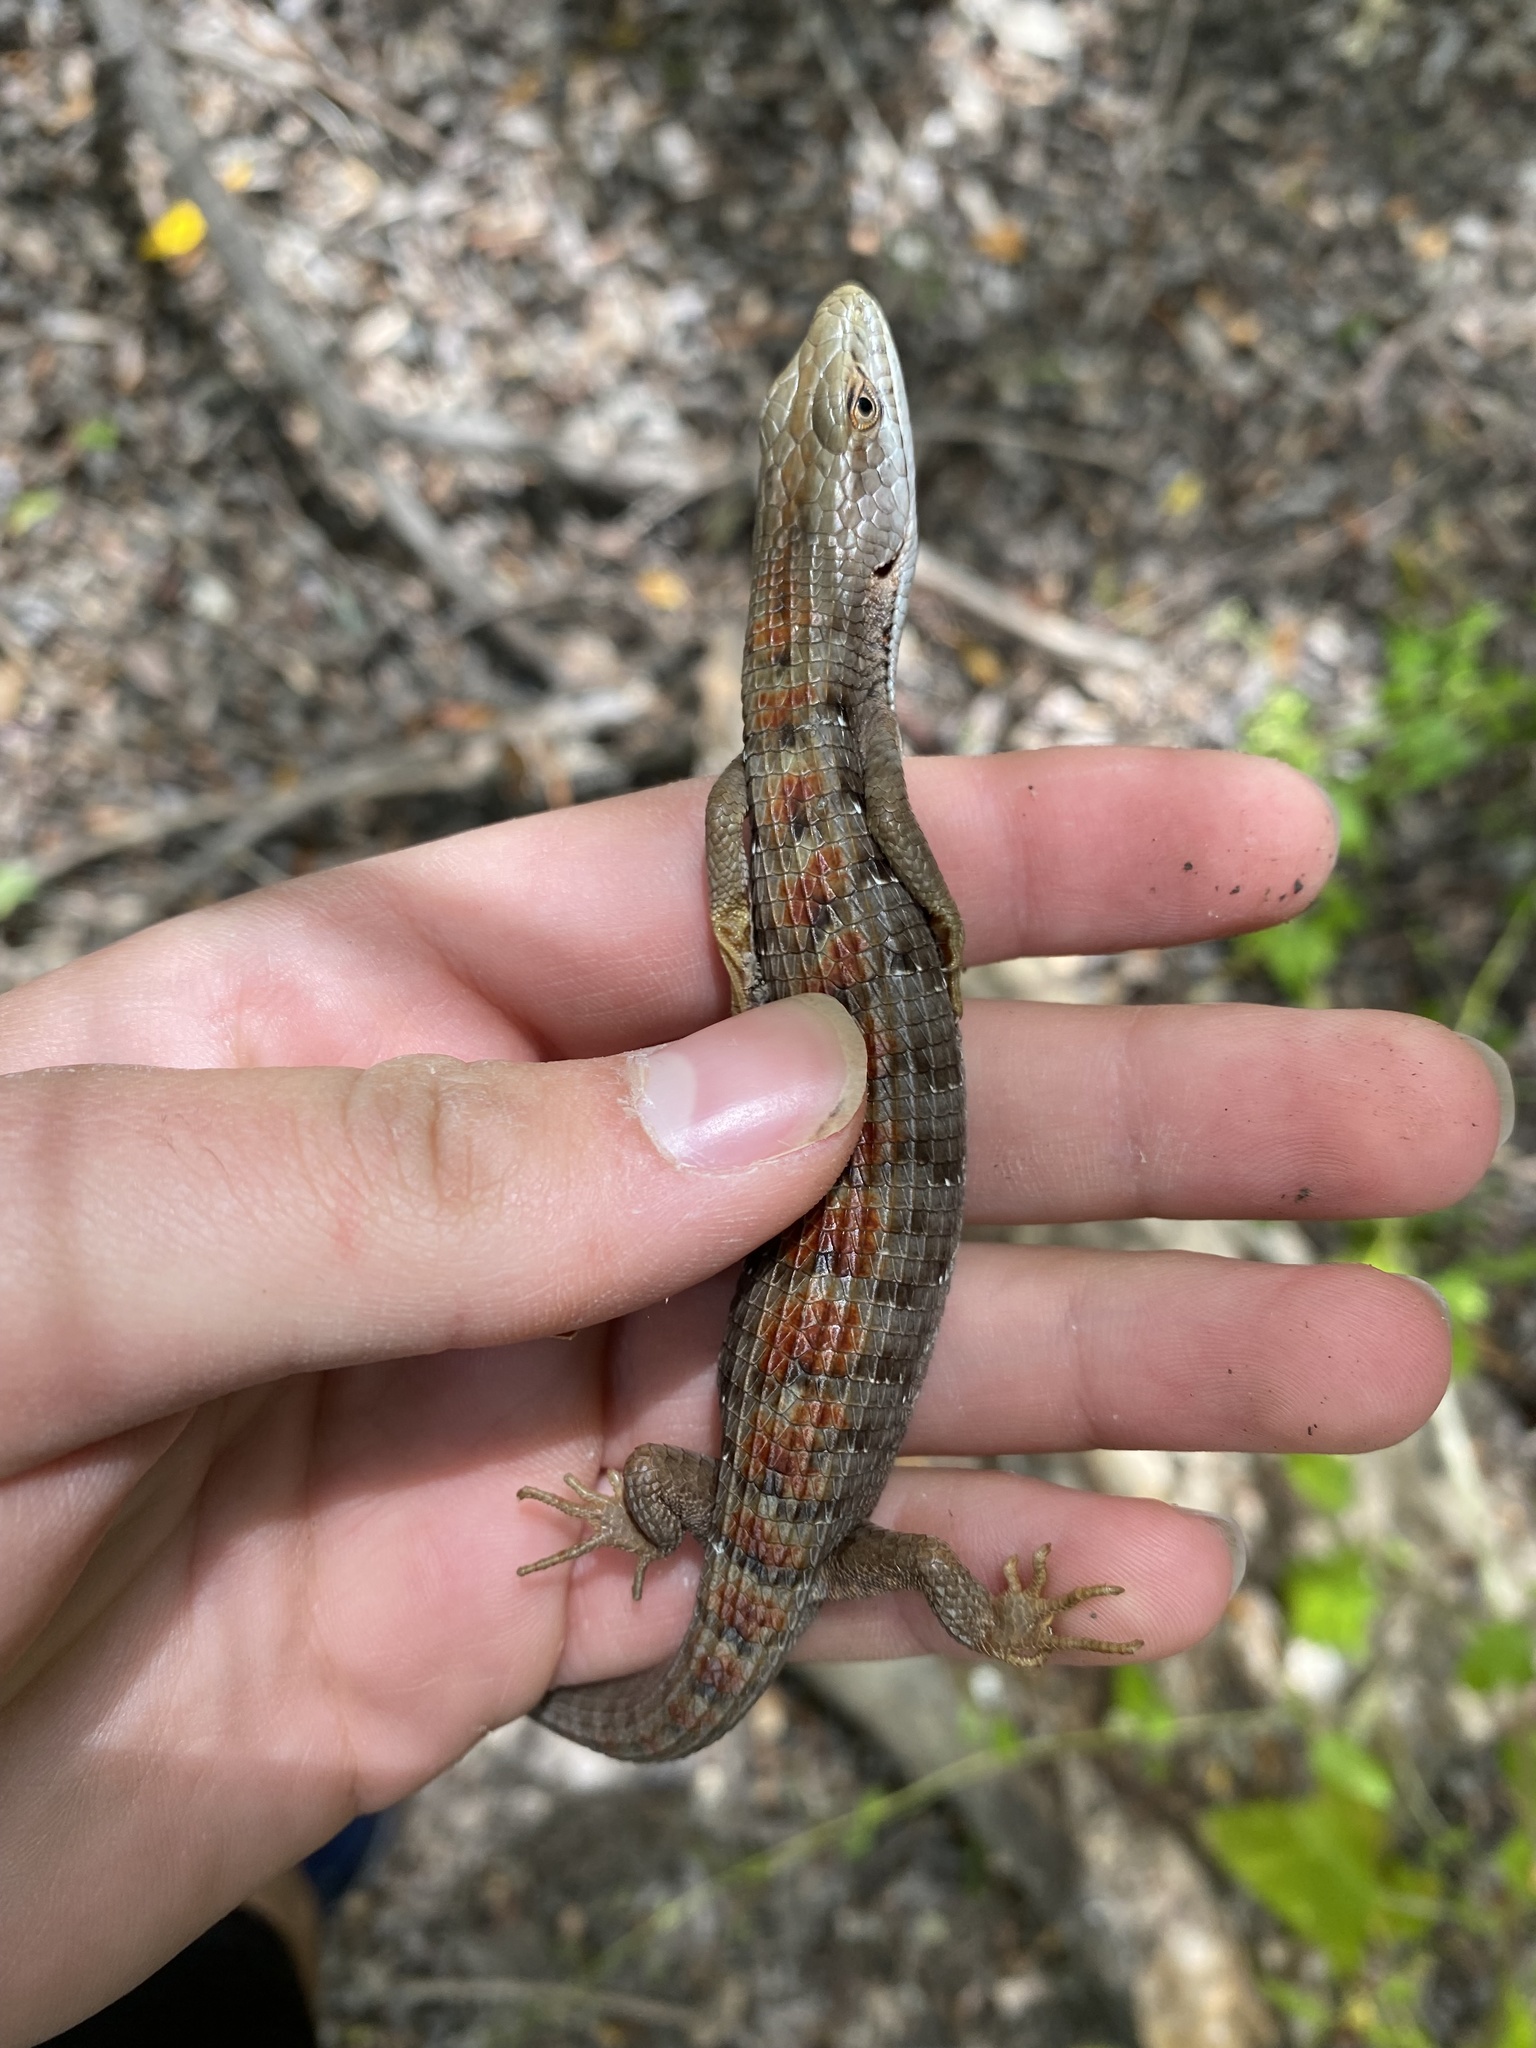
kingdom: Animalia
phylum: Chordata
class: Squamata
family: Anguidae
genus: Elgaria
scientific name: Elgaria multicarinata
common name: Southern alligator lizard
